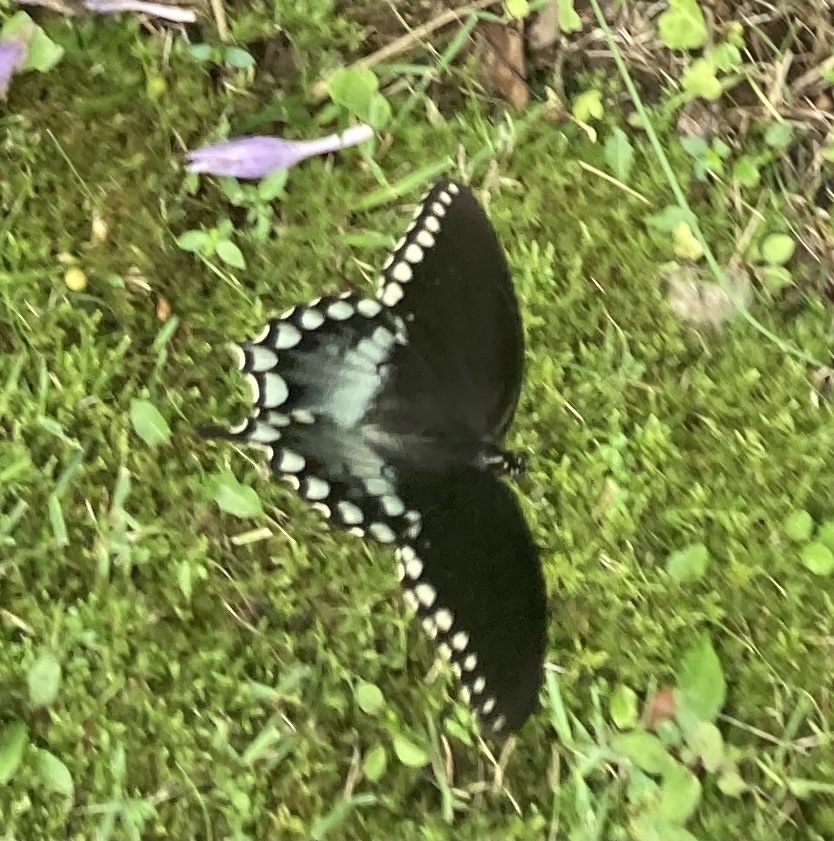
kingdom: Animalia
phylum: Arthropoda
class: Insecta
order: Lepidoptera
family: Papilionidae
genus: Papilio
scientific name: Papilio troilus
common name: Spicebush swallowtail
